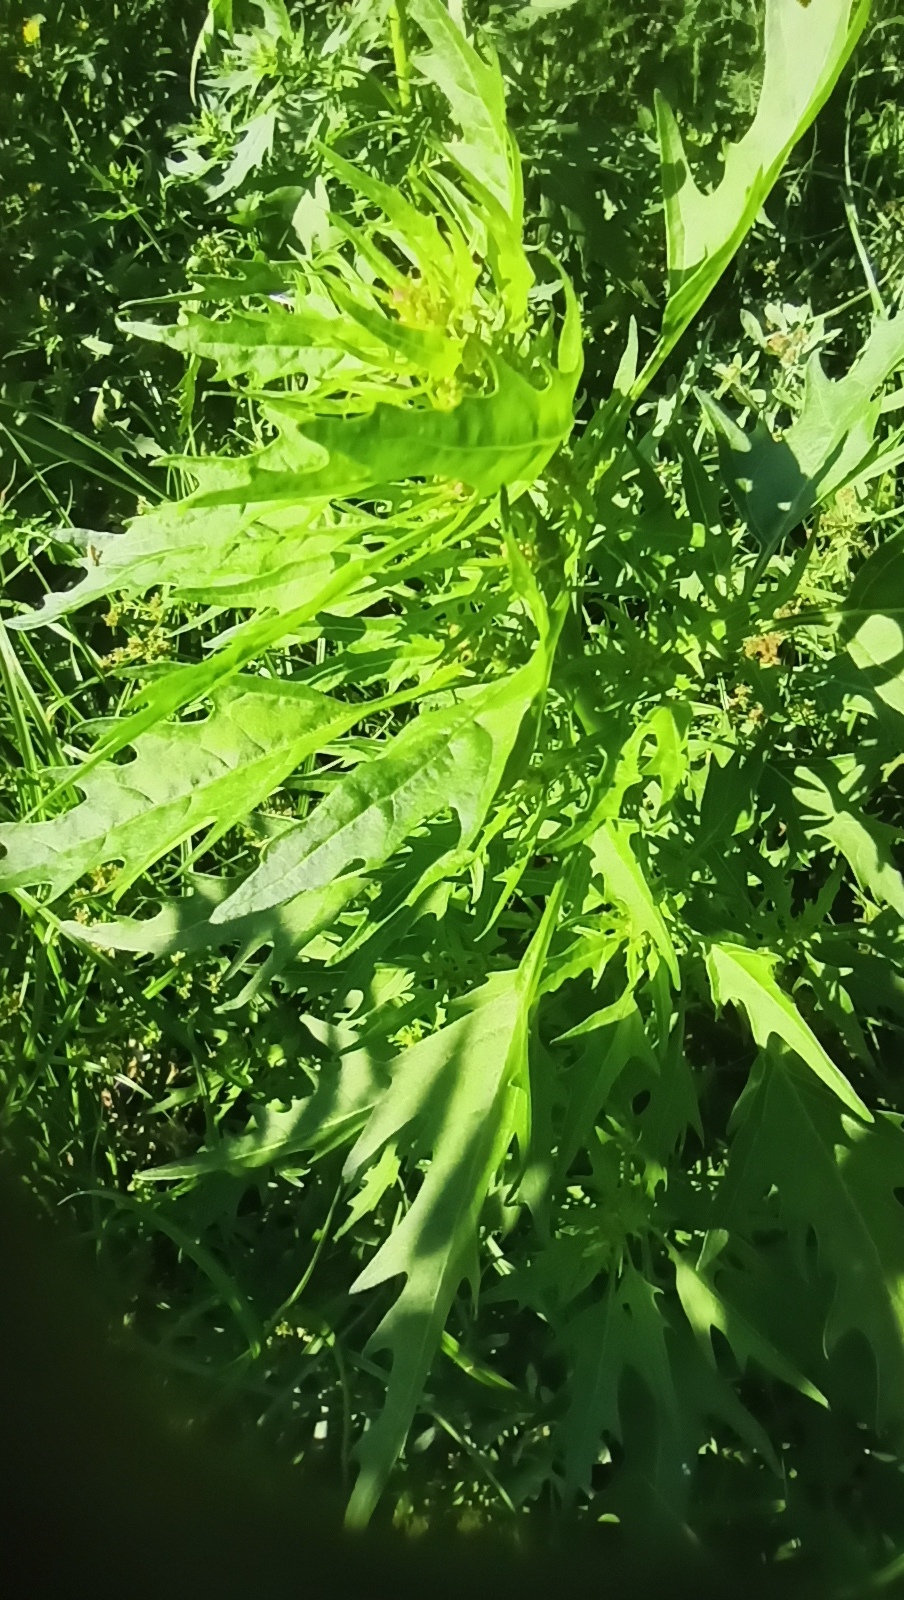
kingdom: Plantae
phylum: Tracheophyta
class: Magnoliopsida
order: Caryophyllales
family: Amaranthaceae
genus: Oxybasis
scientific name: Oxybasis rubra
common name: Red goosefoot
